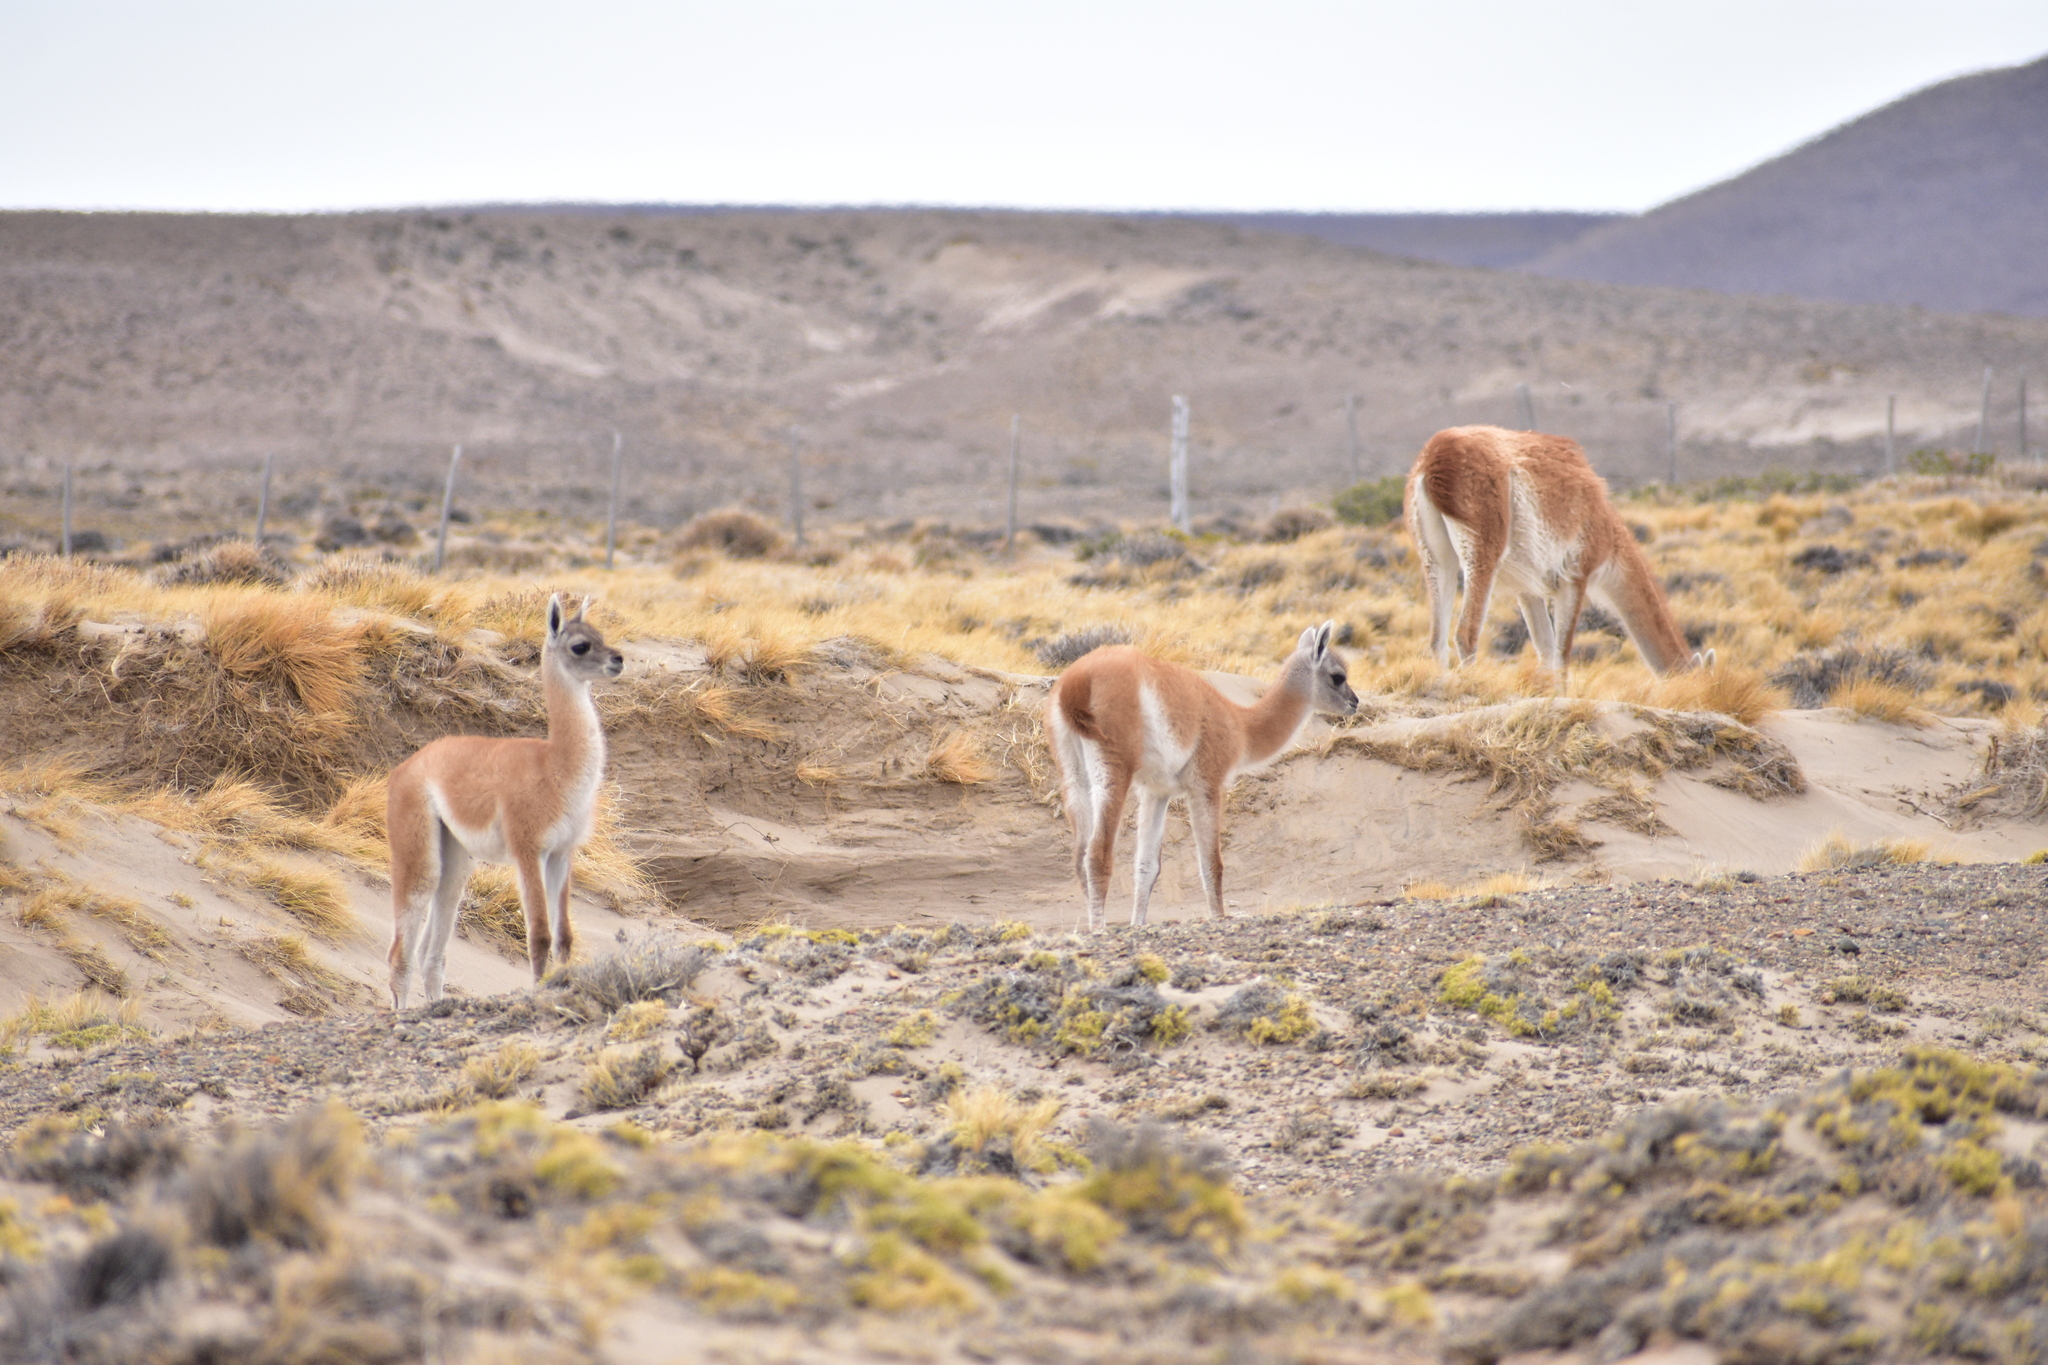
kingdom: Animalia
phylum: Chordata
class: Mammalia
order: Artiodactyla
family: Camelidae
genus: Lama
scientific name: Lama glama
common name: Llama
